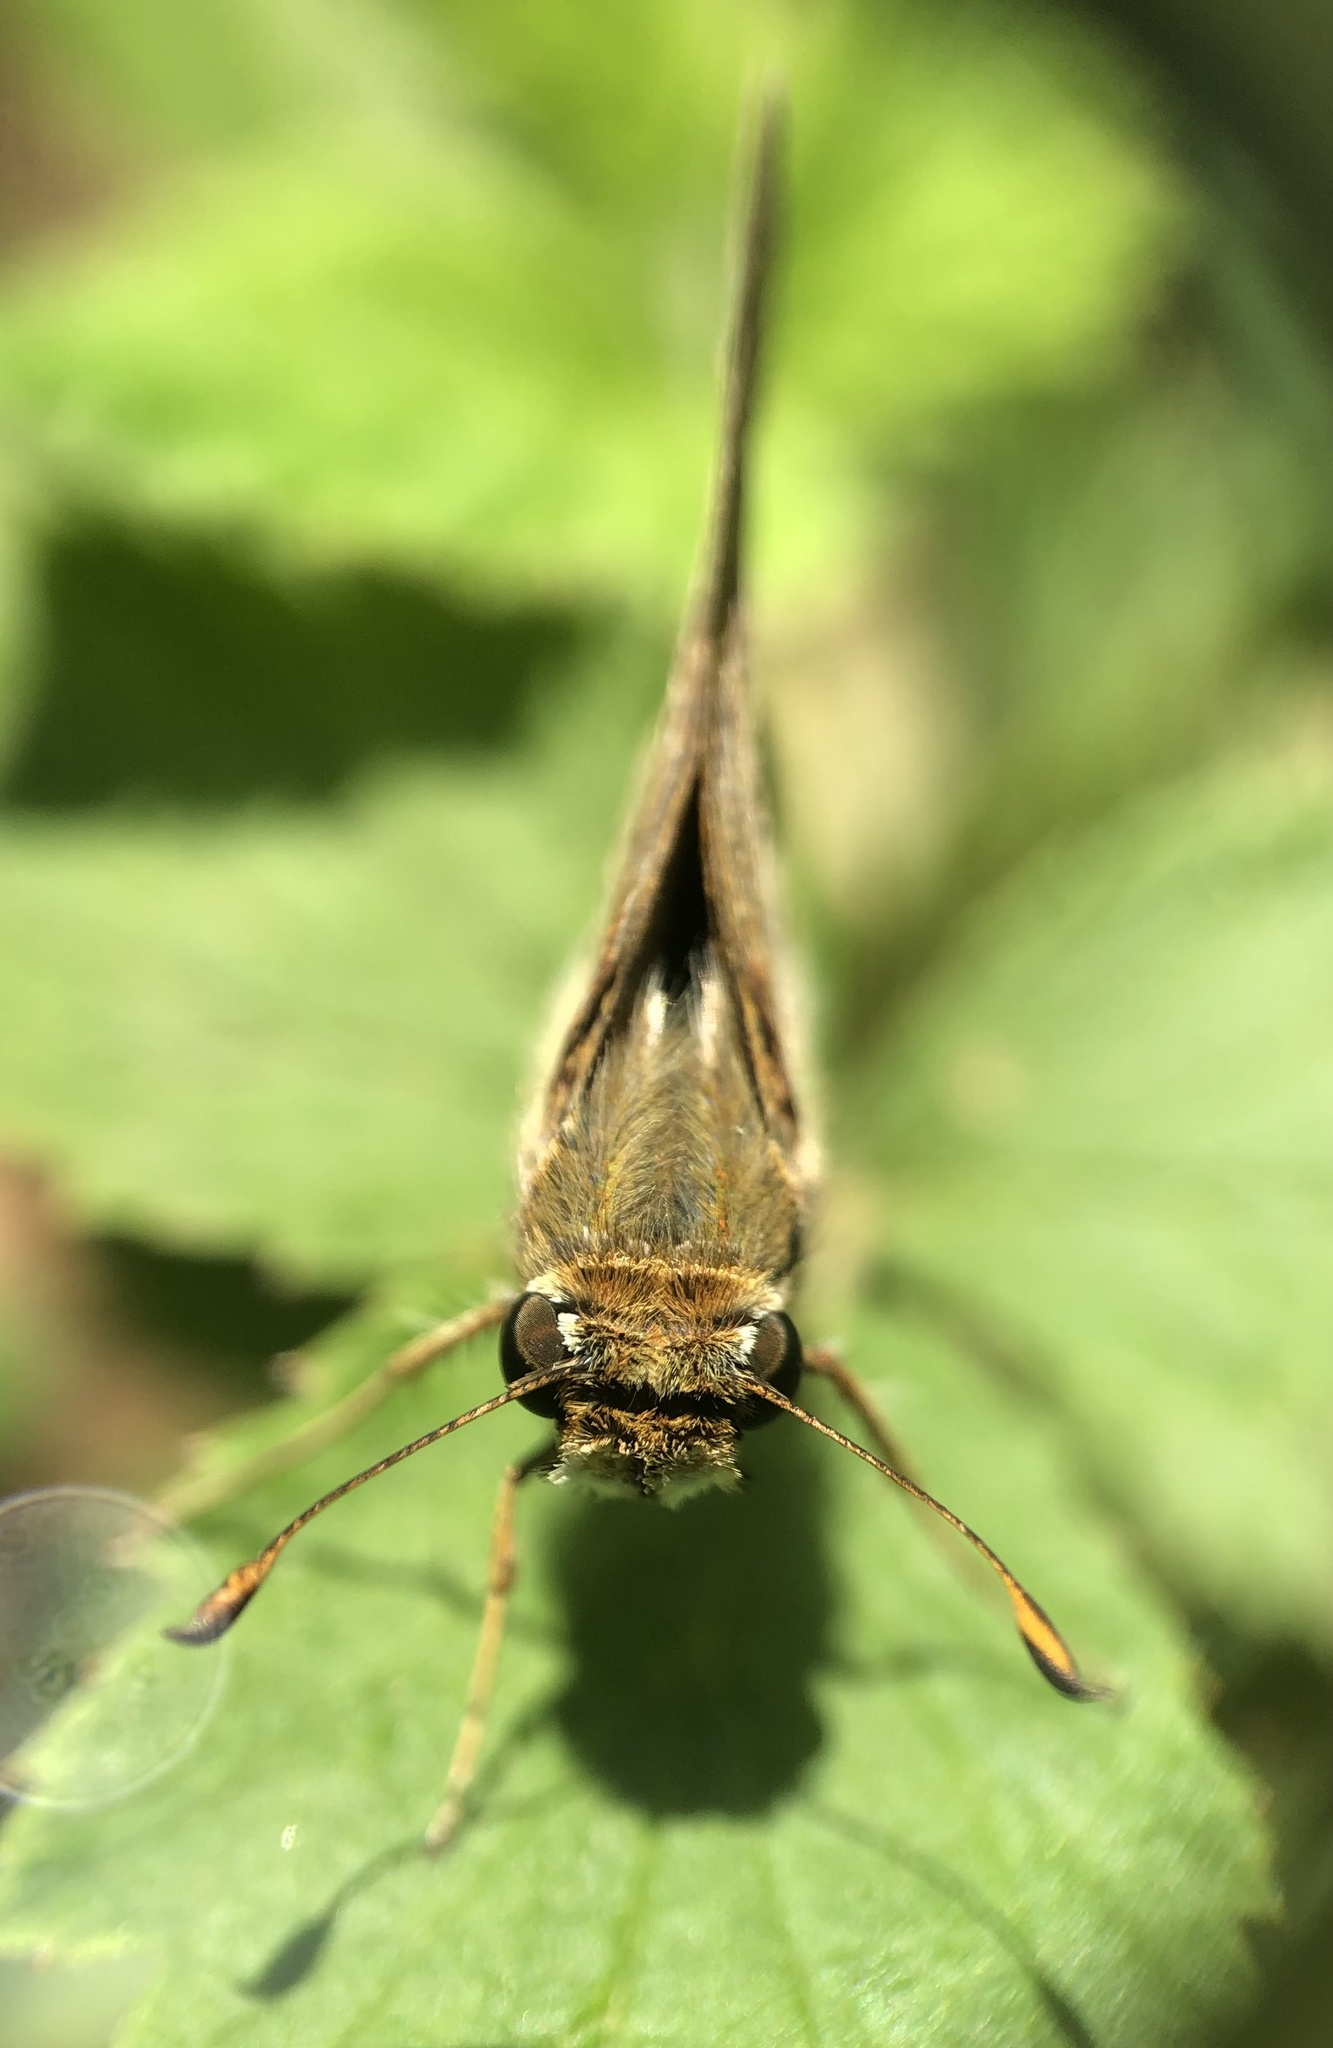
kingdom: Animalia
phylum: Arthropoda
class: Insecta
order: Lepidoptera
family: Hesperiidae
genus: Atalopedes
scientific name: Atalopedes
